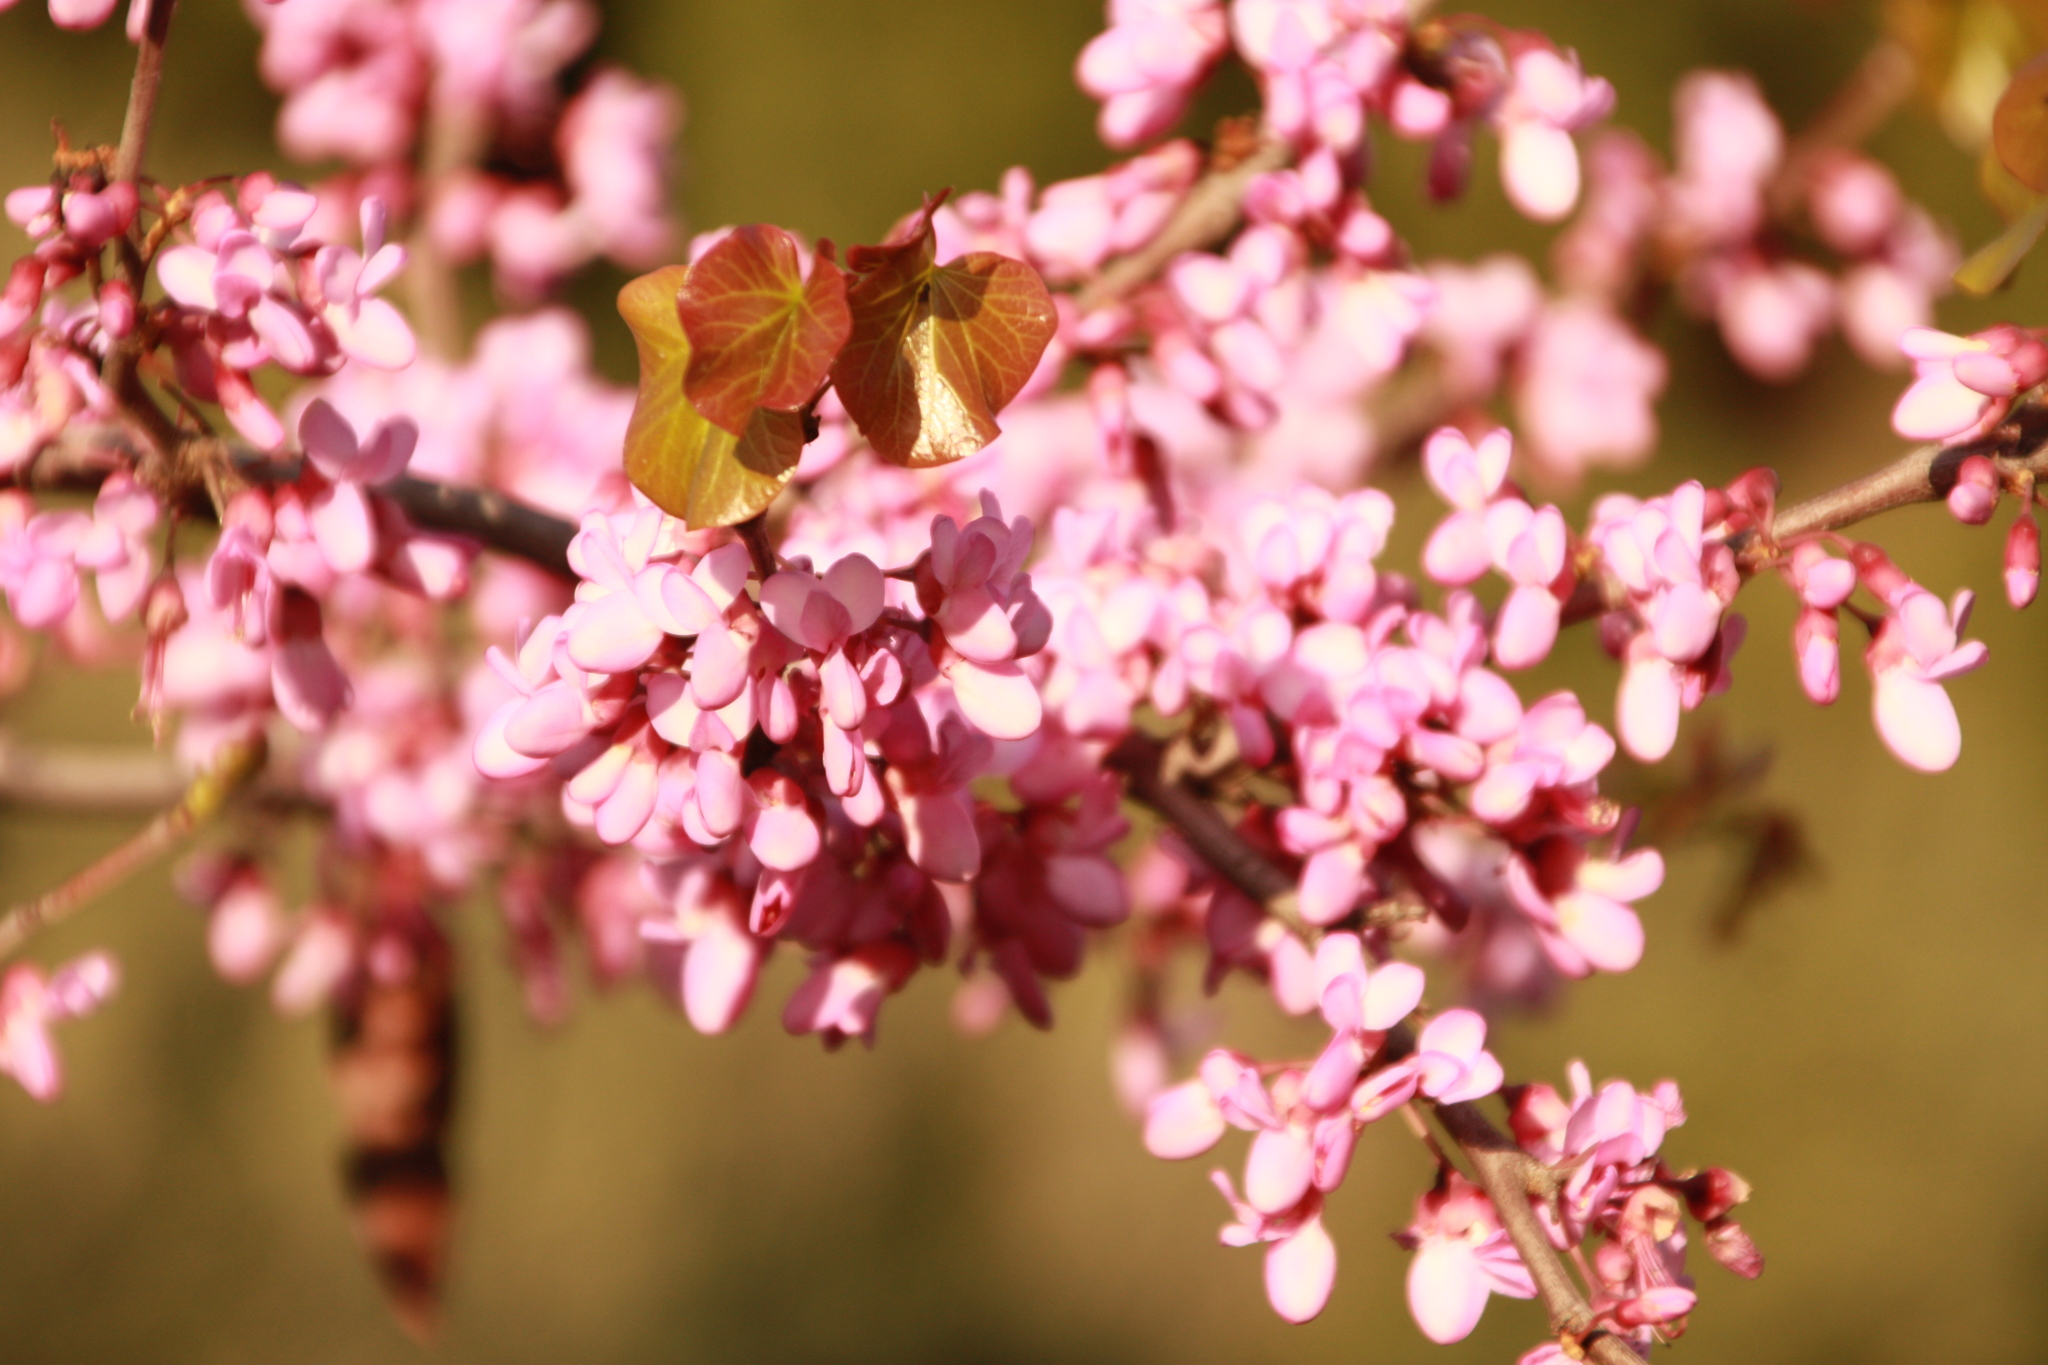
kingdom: Plantae
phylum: Tracheophyta
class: Magnoliopsida
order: Fabales
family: Fabaceae
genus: Cercis
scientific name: Cercis siliquastrum
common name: Judas tree
